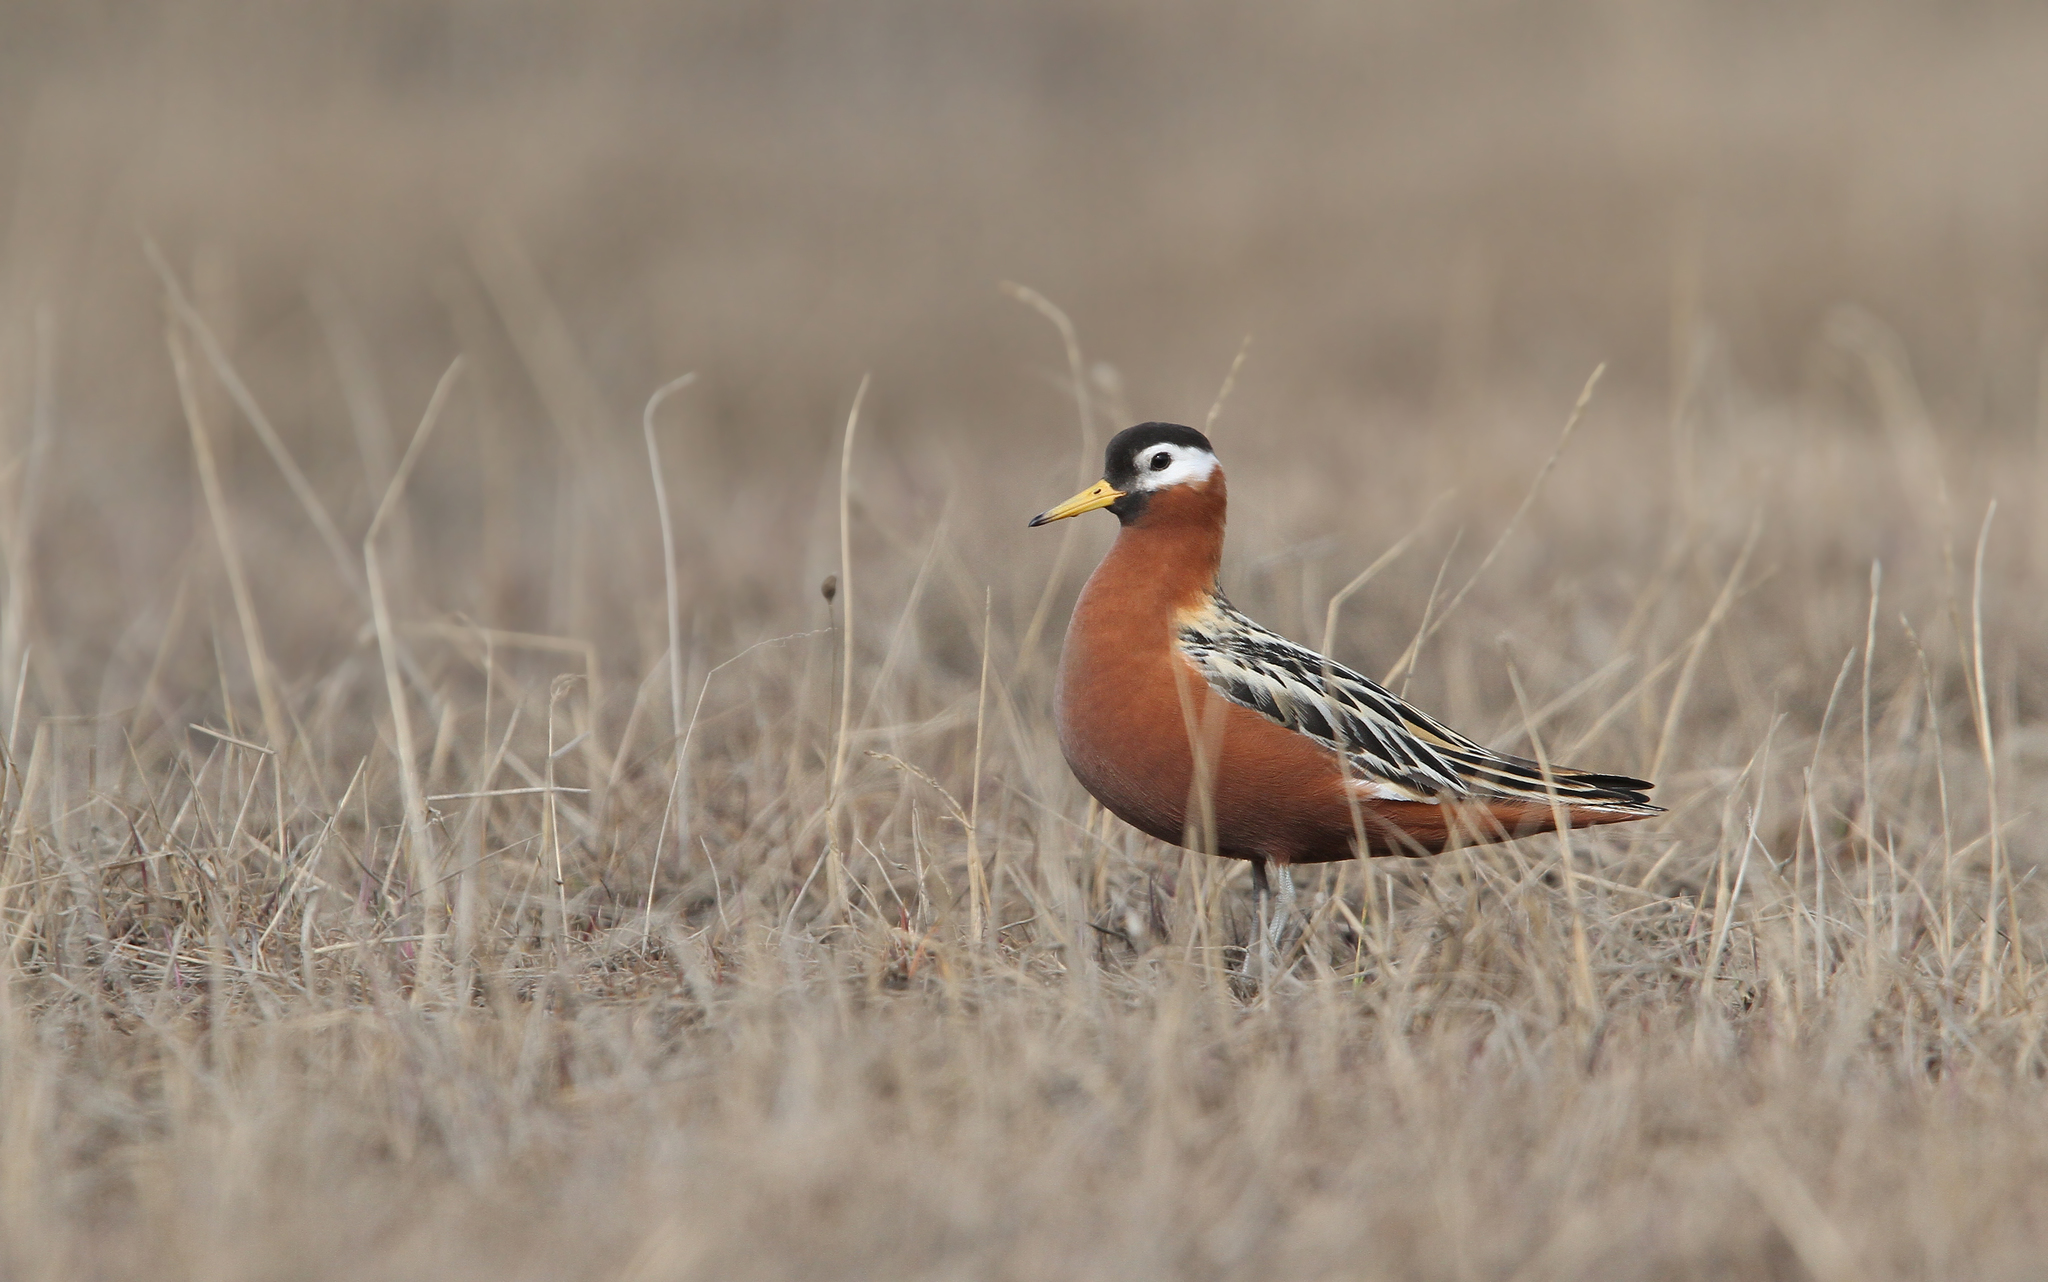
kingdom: Animalia
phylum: Chordata
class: Aves
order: Charadriiformes
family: Scolopacidae
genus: Phalaropus
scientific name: Phalaropus fulicarius
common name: Red phalarope
